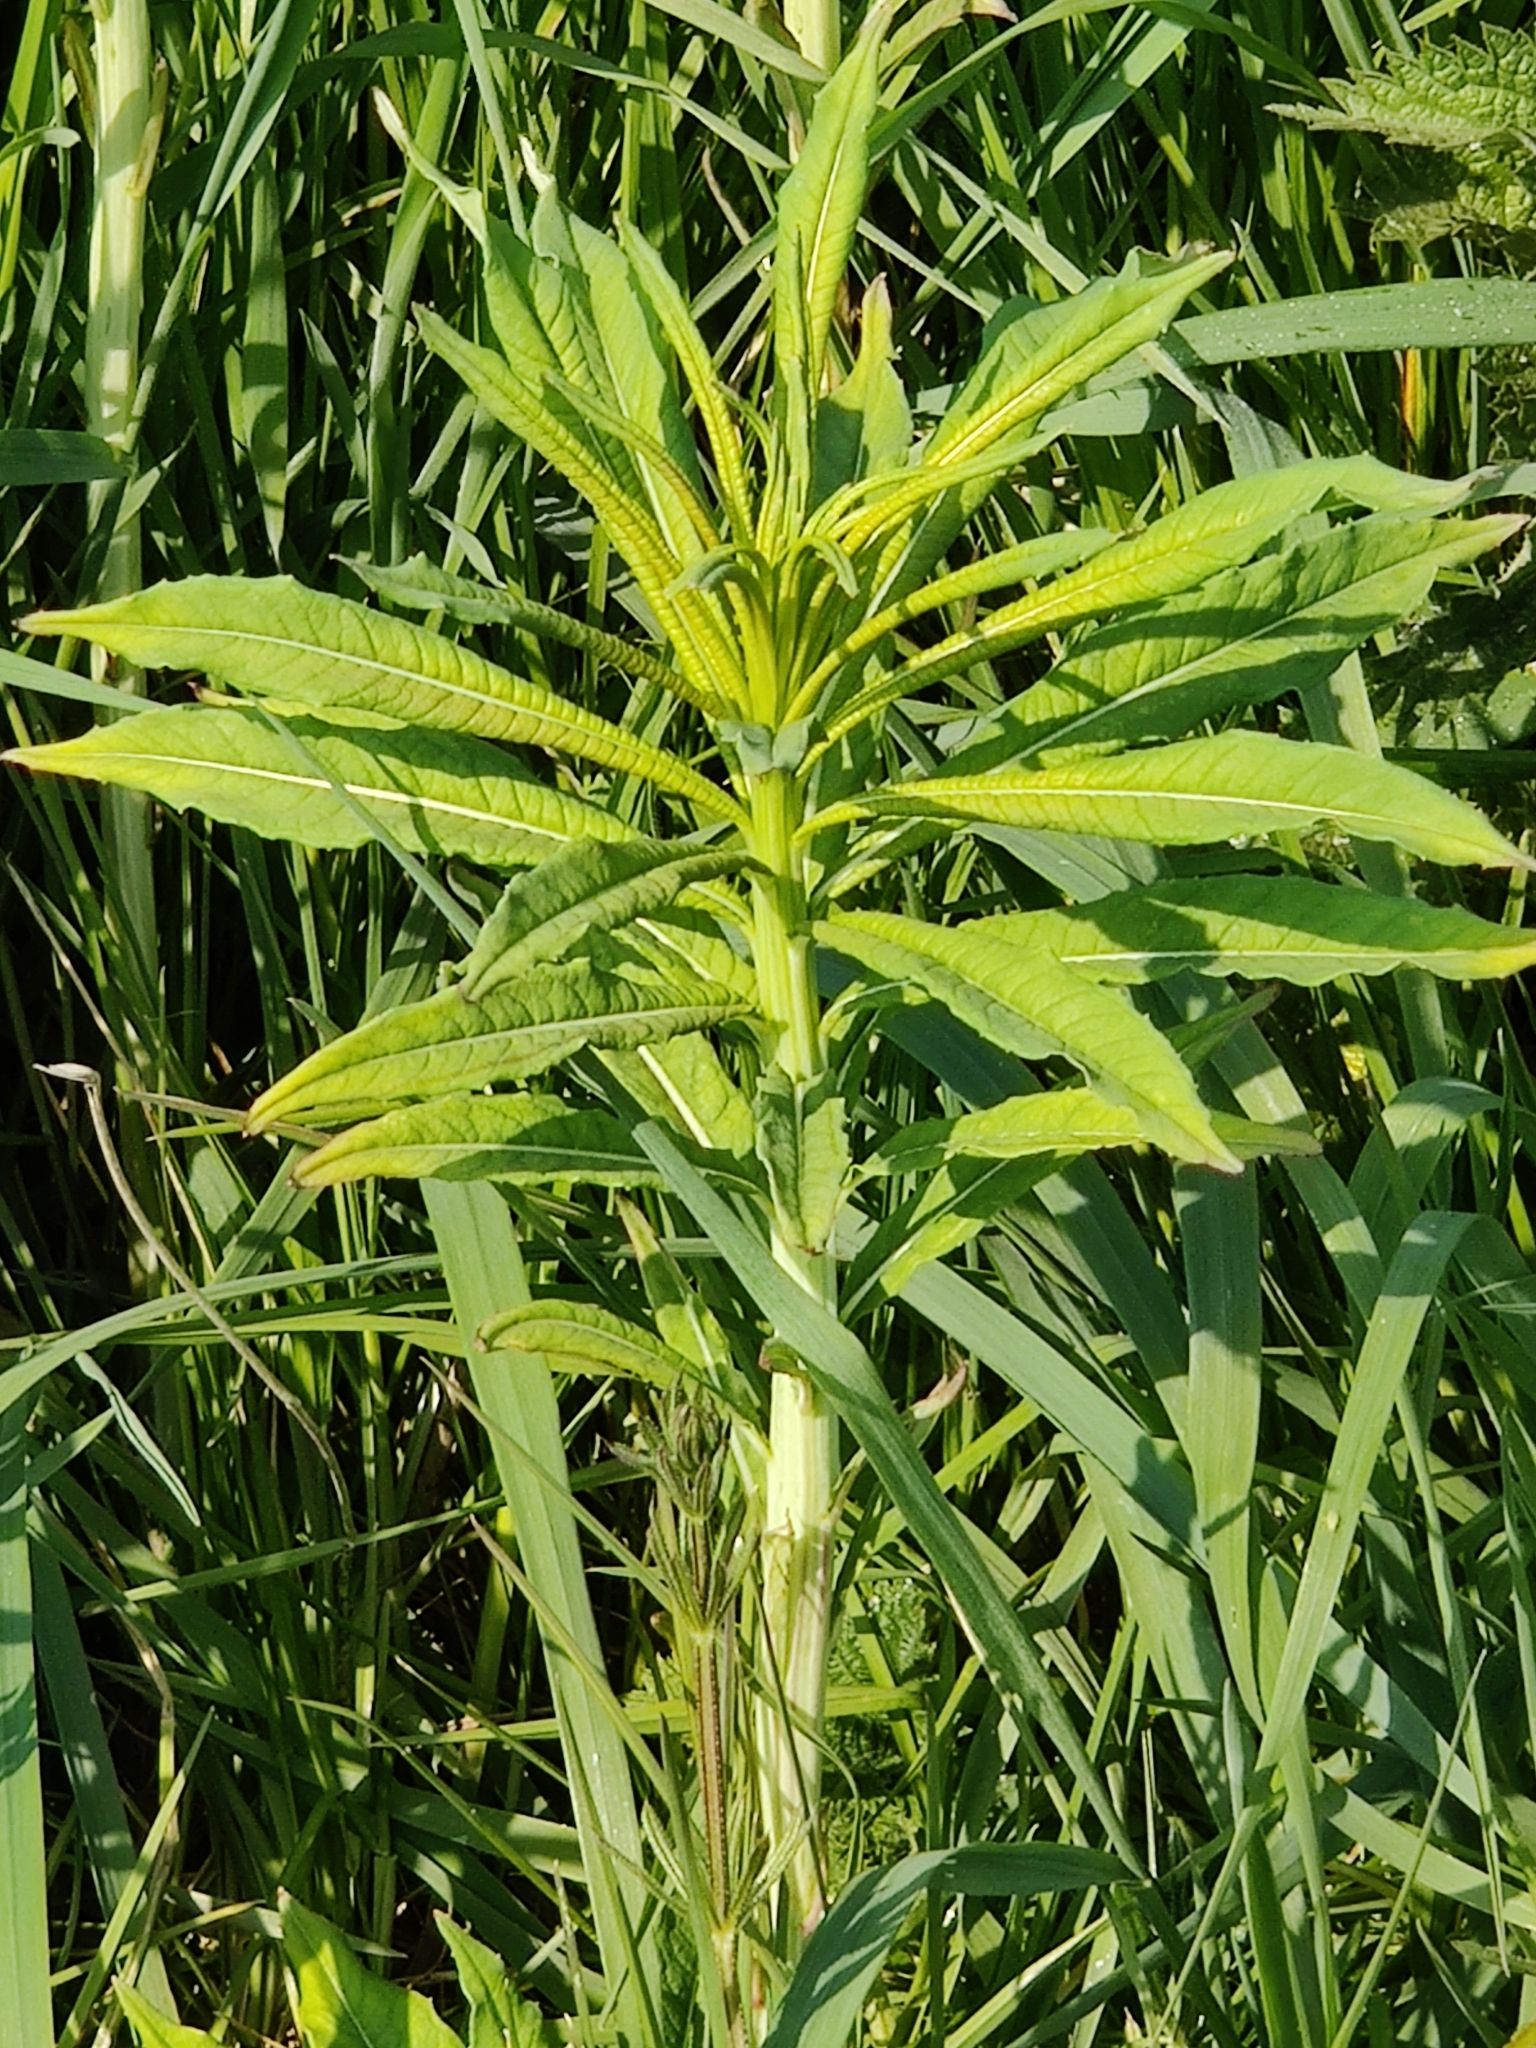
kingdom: Plantae
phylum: Tracheophyta
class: Magnoliopsida
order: Myrtales
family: Onagraceae
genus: Chamaenerion
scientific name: Chamaenerion angustifolium
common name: Fireweed
